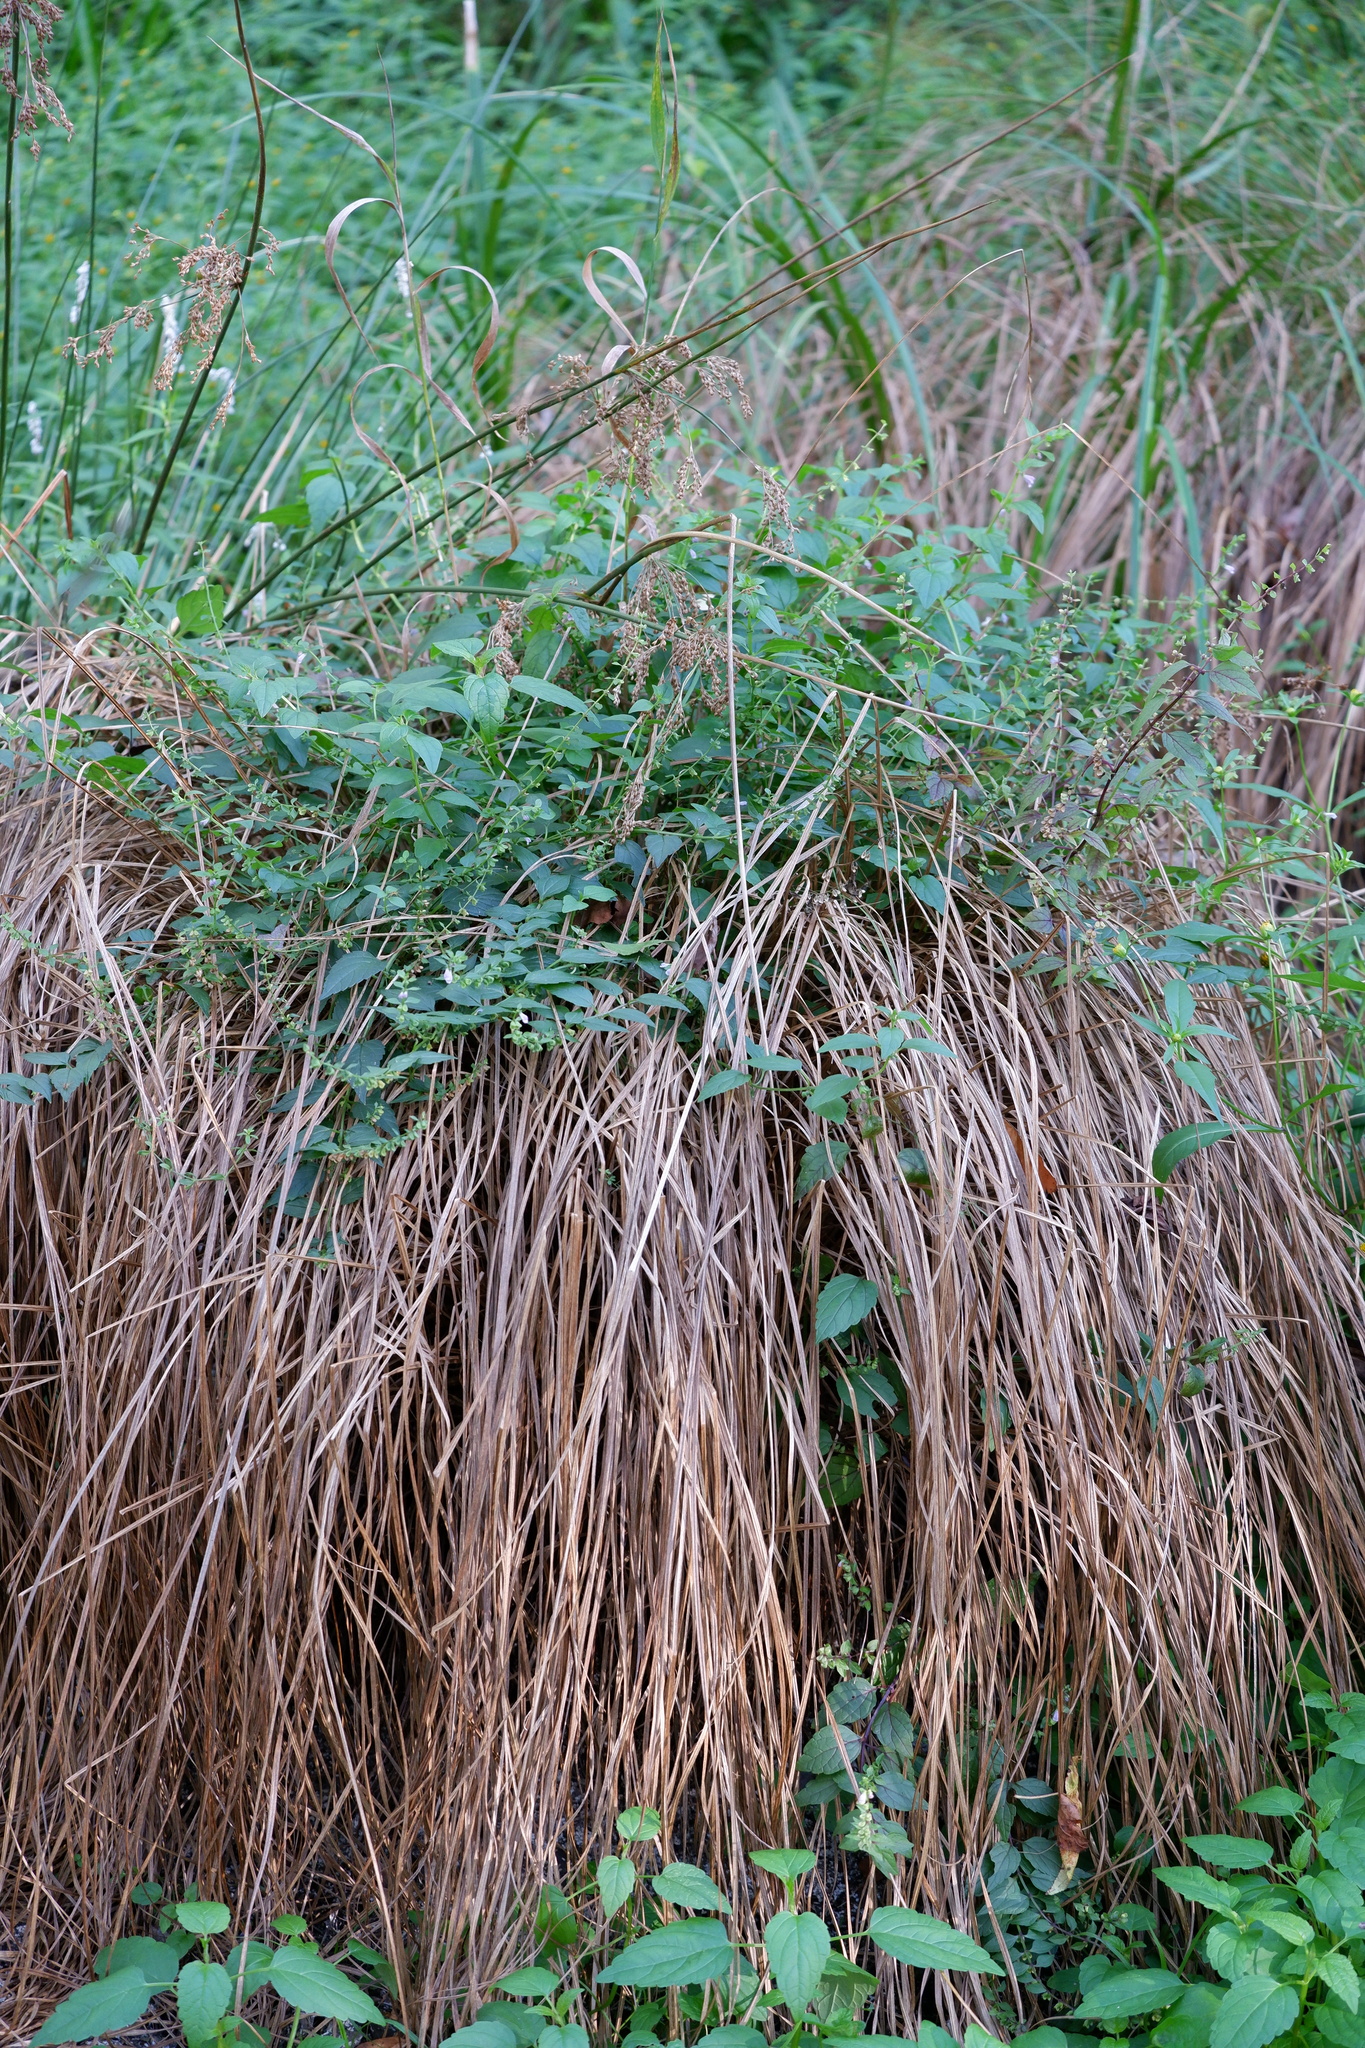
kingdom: Plantae
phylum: Tracheophyta
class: Magnoliopsida
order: Lamiales
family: Lamiaceae
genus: Scutellaria
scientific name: Scutellaria lateriflora
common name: Blue skullcap
